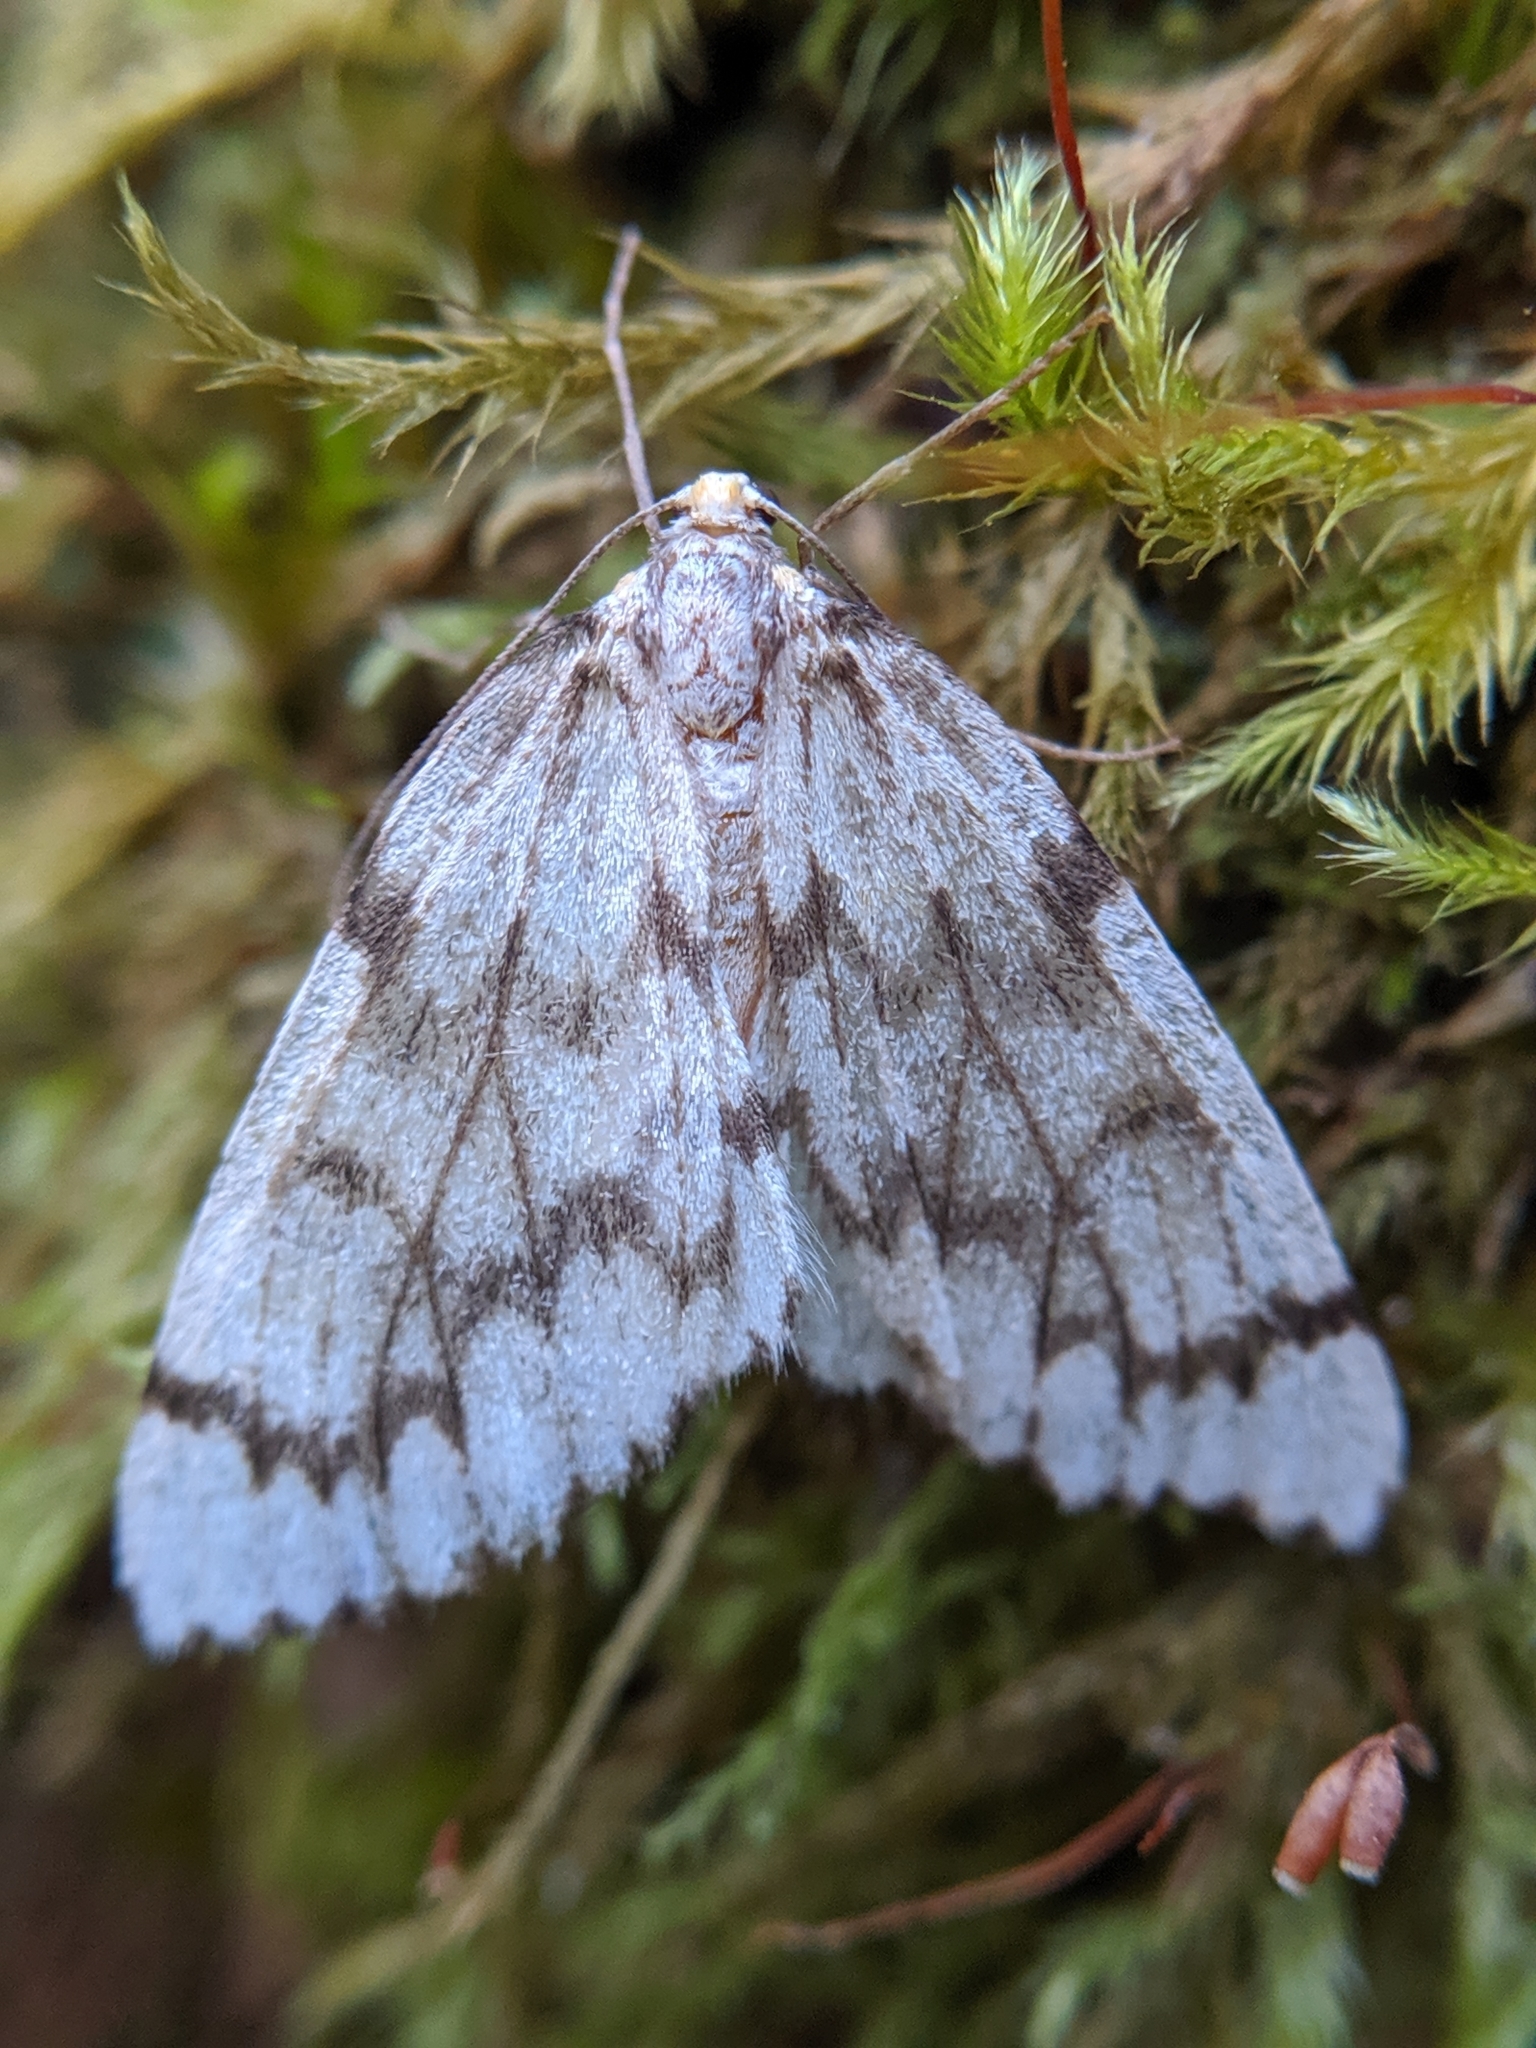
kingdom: Animalia
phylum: Arthropoda
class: Insecta
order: Lepidoptera
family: Geometridae
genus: Nepytia
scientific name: Nepytia phantasmaria
